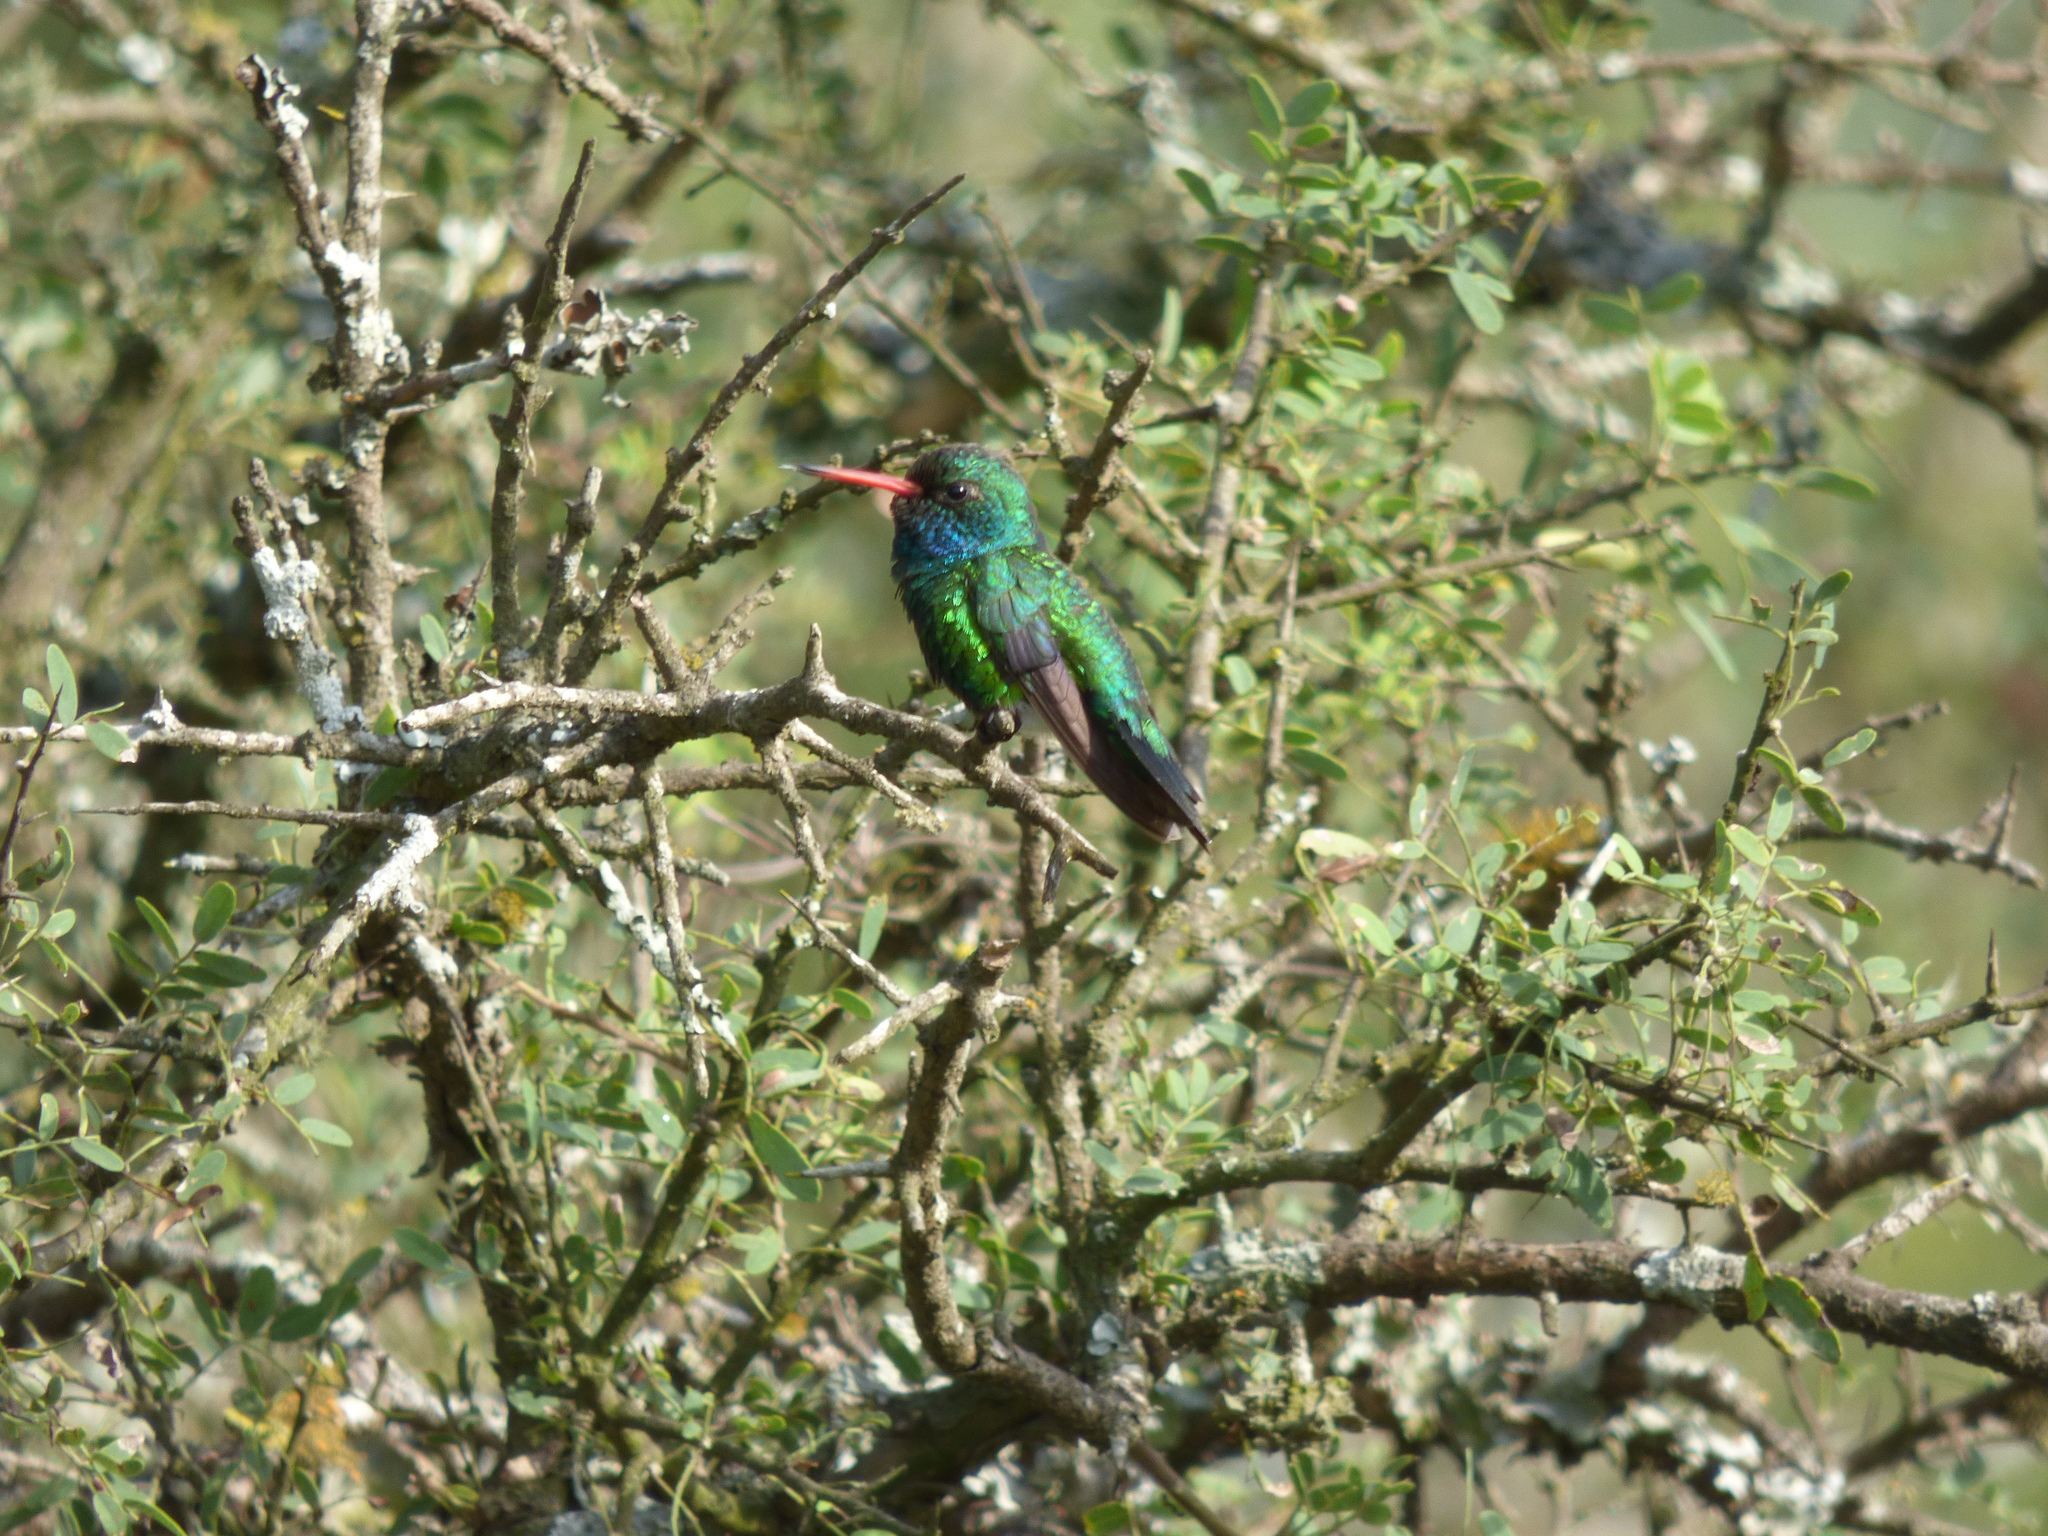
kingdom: Animalia
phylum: Chordata
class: Aves
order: Apodiformes
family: Trochilidae
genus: Chlorostilbon
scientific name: Chlorostilbon lucidus
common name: Glittering-bellied emerald
